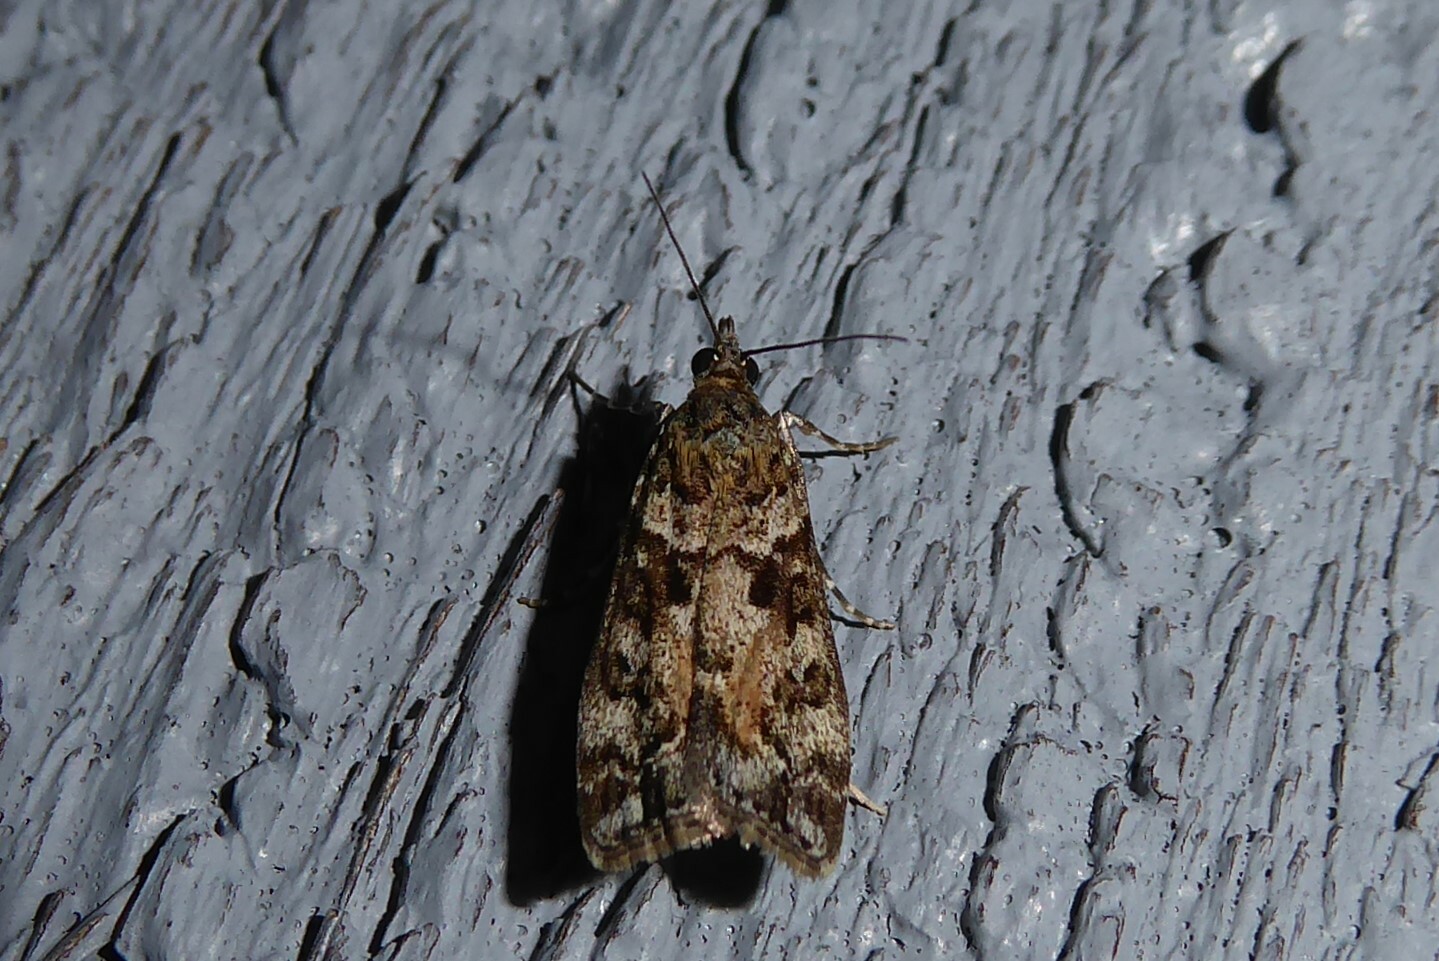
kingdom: Animalia
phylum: Arthropoda
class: Insecta
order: Lepidoptera
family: Crambidae
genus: Eudonia
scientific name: Eudonia submarginalis
